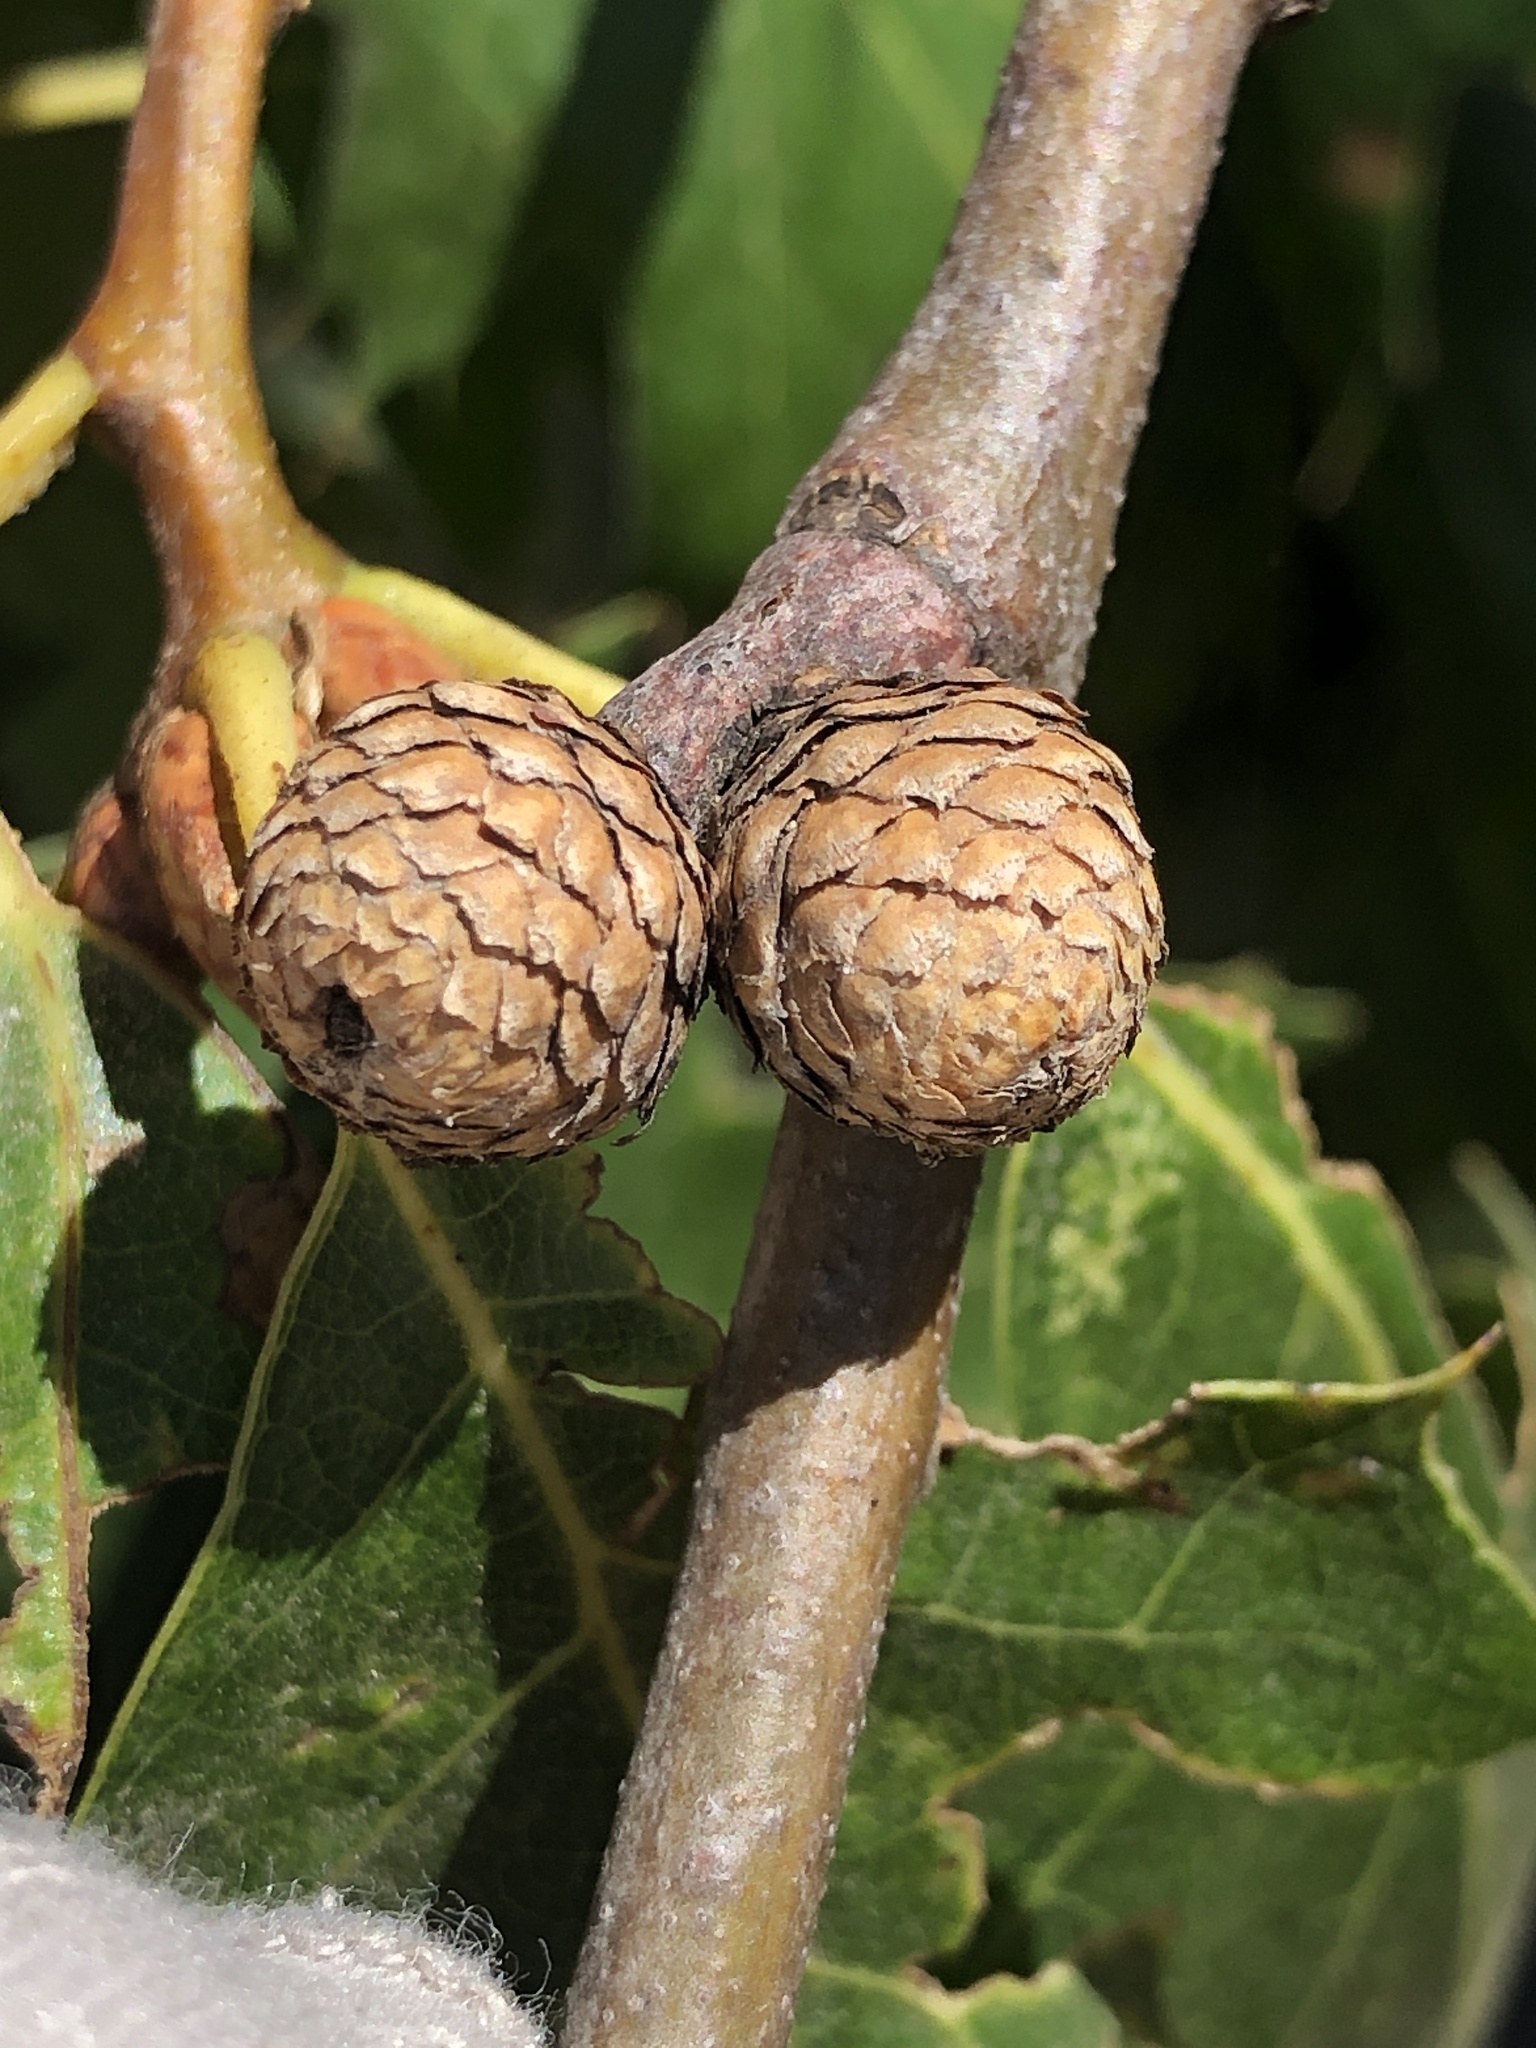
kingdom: Plantae
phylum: Tracheophyta
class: Magnoliopsida
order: Fagales
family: Fagaceae
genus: Quercus
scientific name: Quercus kelloggii
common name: California black oak
